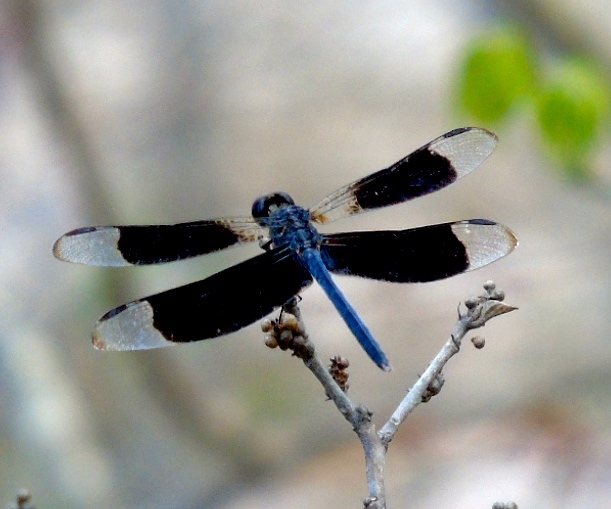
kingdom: Animalia
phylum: Arthropoda
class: Insecta
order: Odonata
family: Libellulidae
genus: Erythrodiplax
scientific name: Erythrodiplax funerea
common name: Black-winged dragonlet
